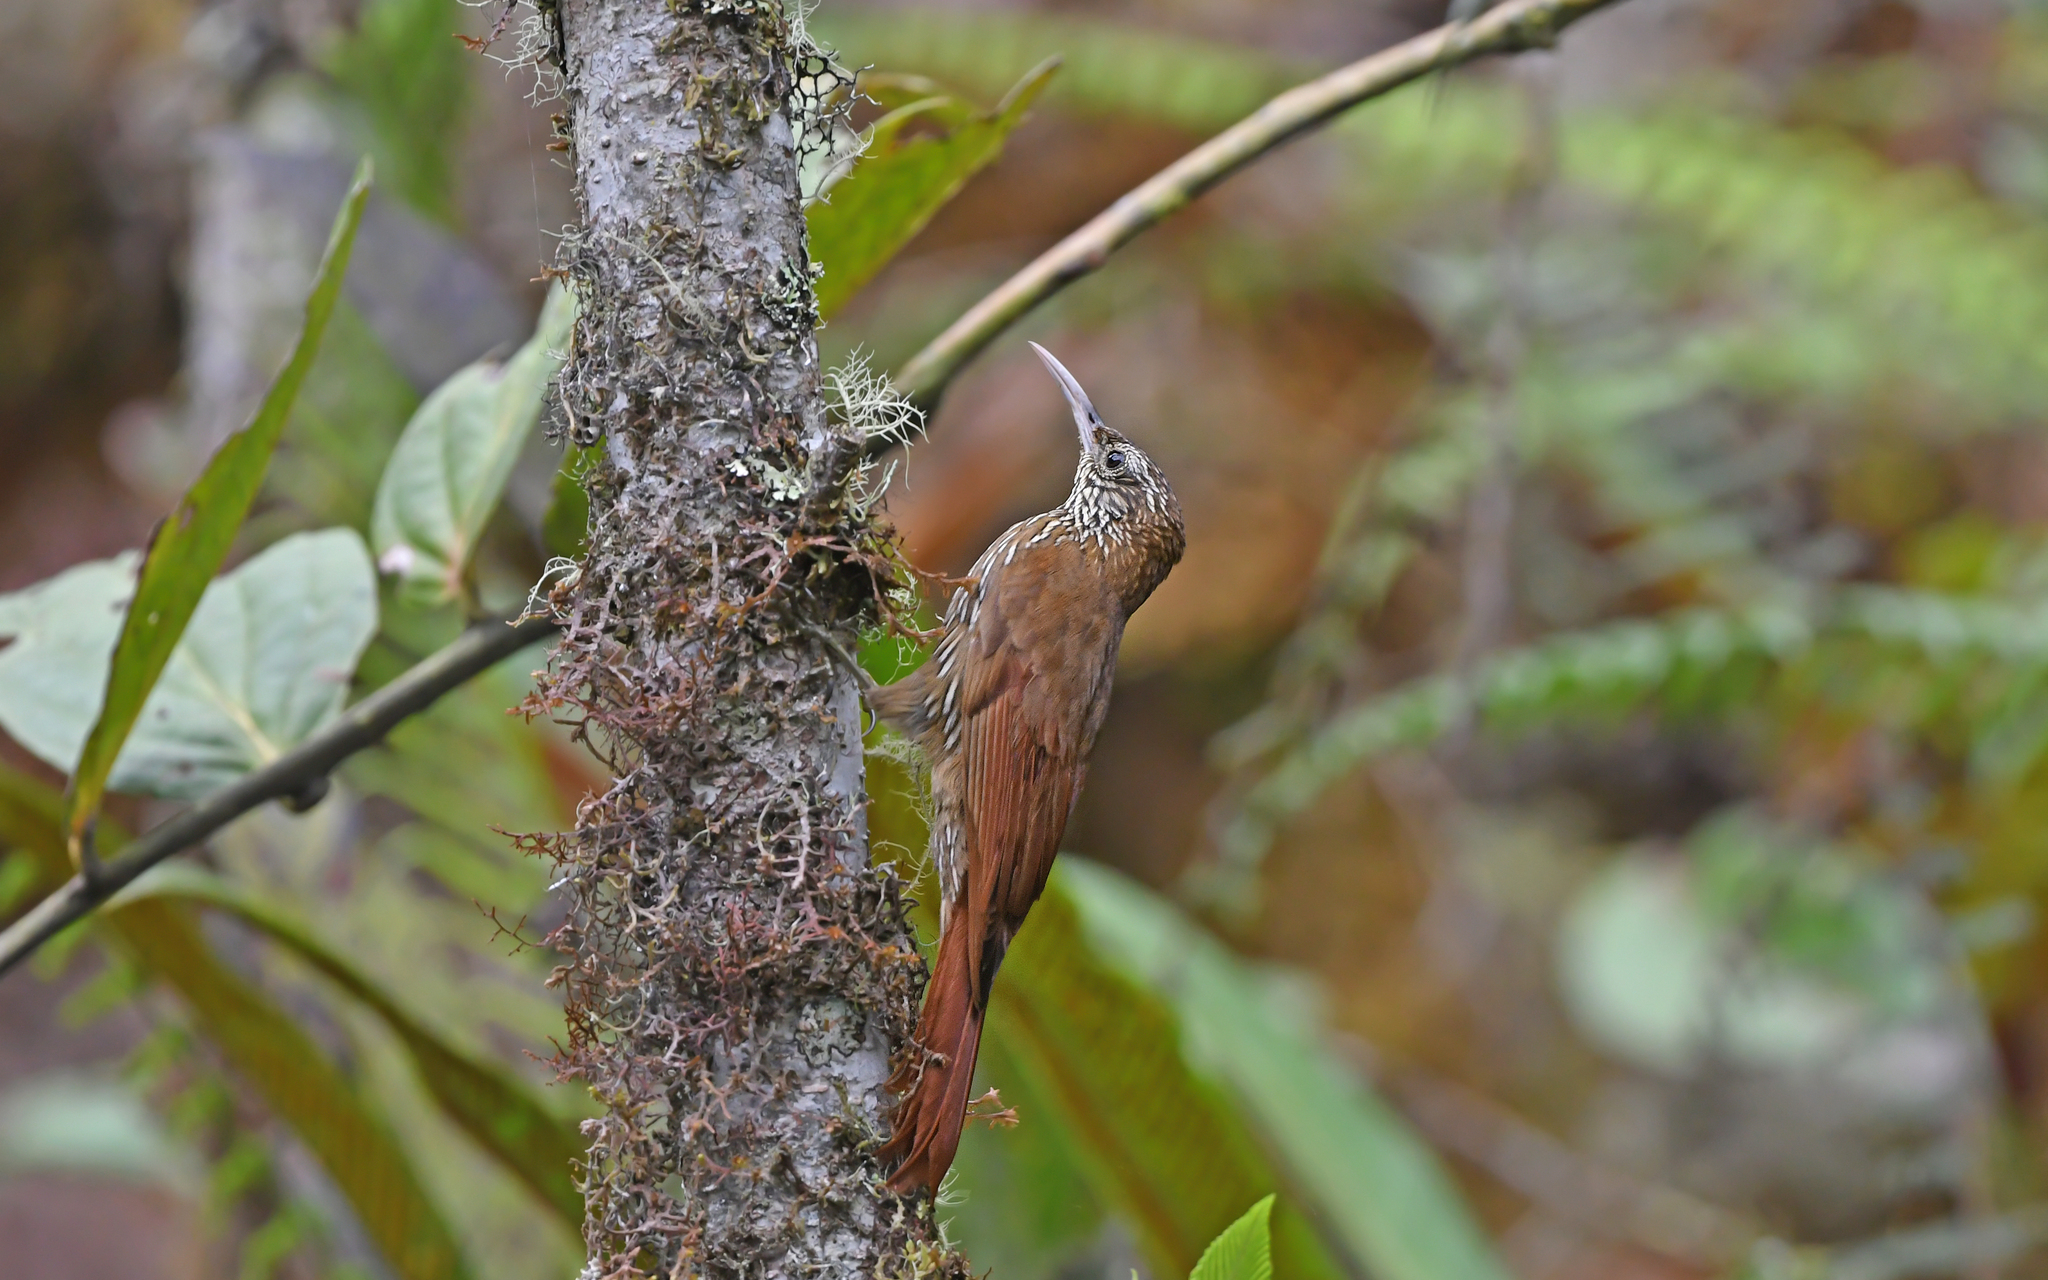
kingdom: Animalia
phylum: Chordata
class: Aves
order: Passeriformes
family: Furnariidae
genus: Lepidocolaptes
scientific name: Lepidocolaptes lacrymiger
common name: Montane woodcreeper
